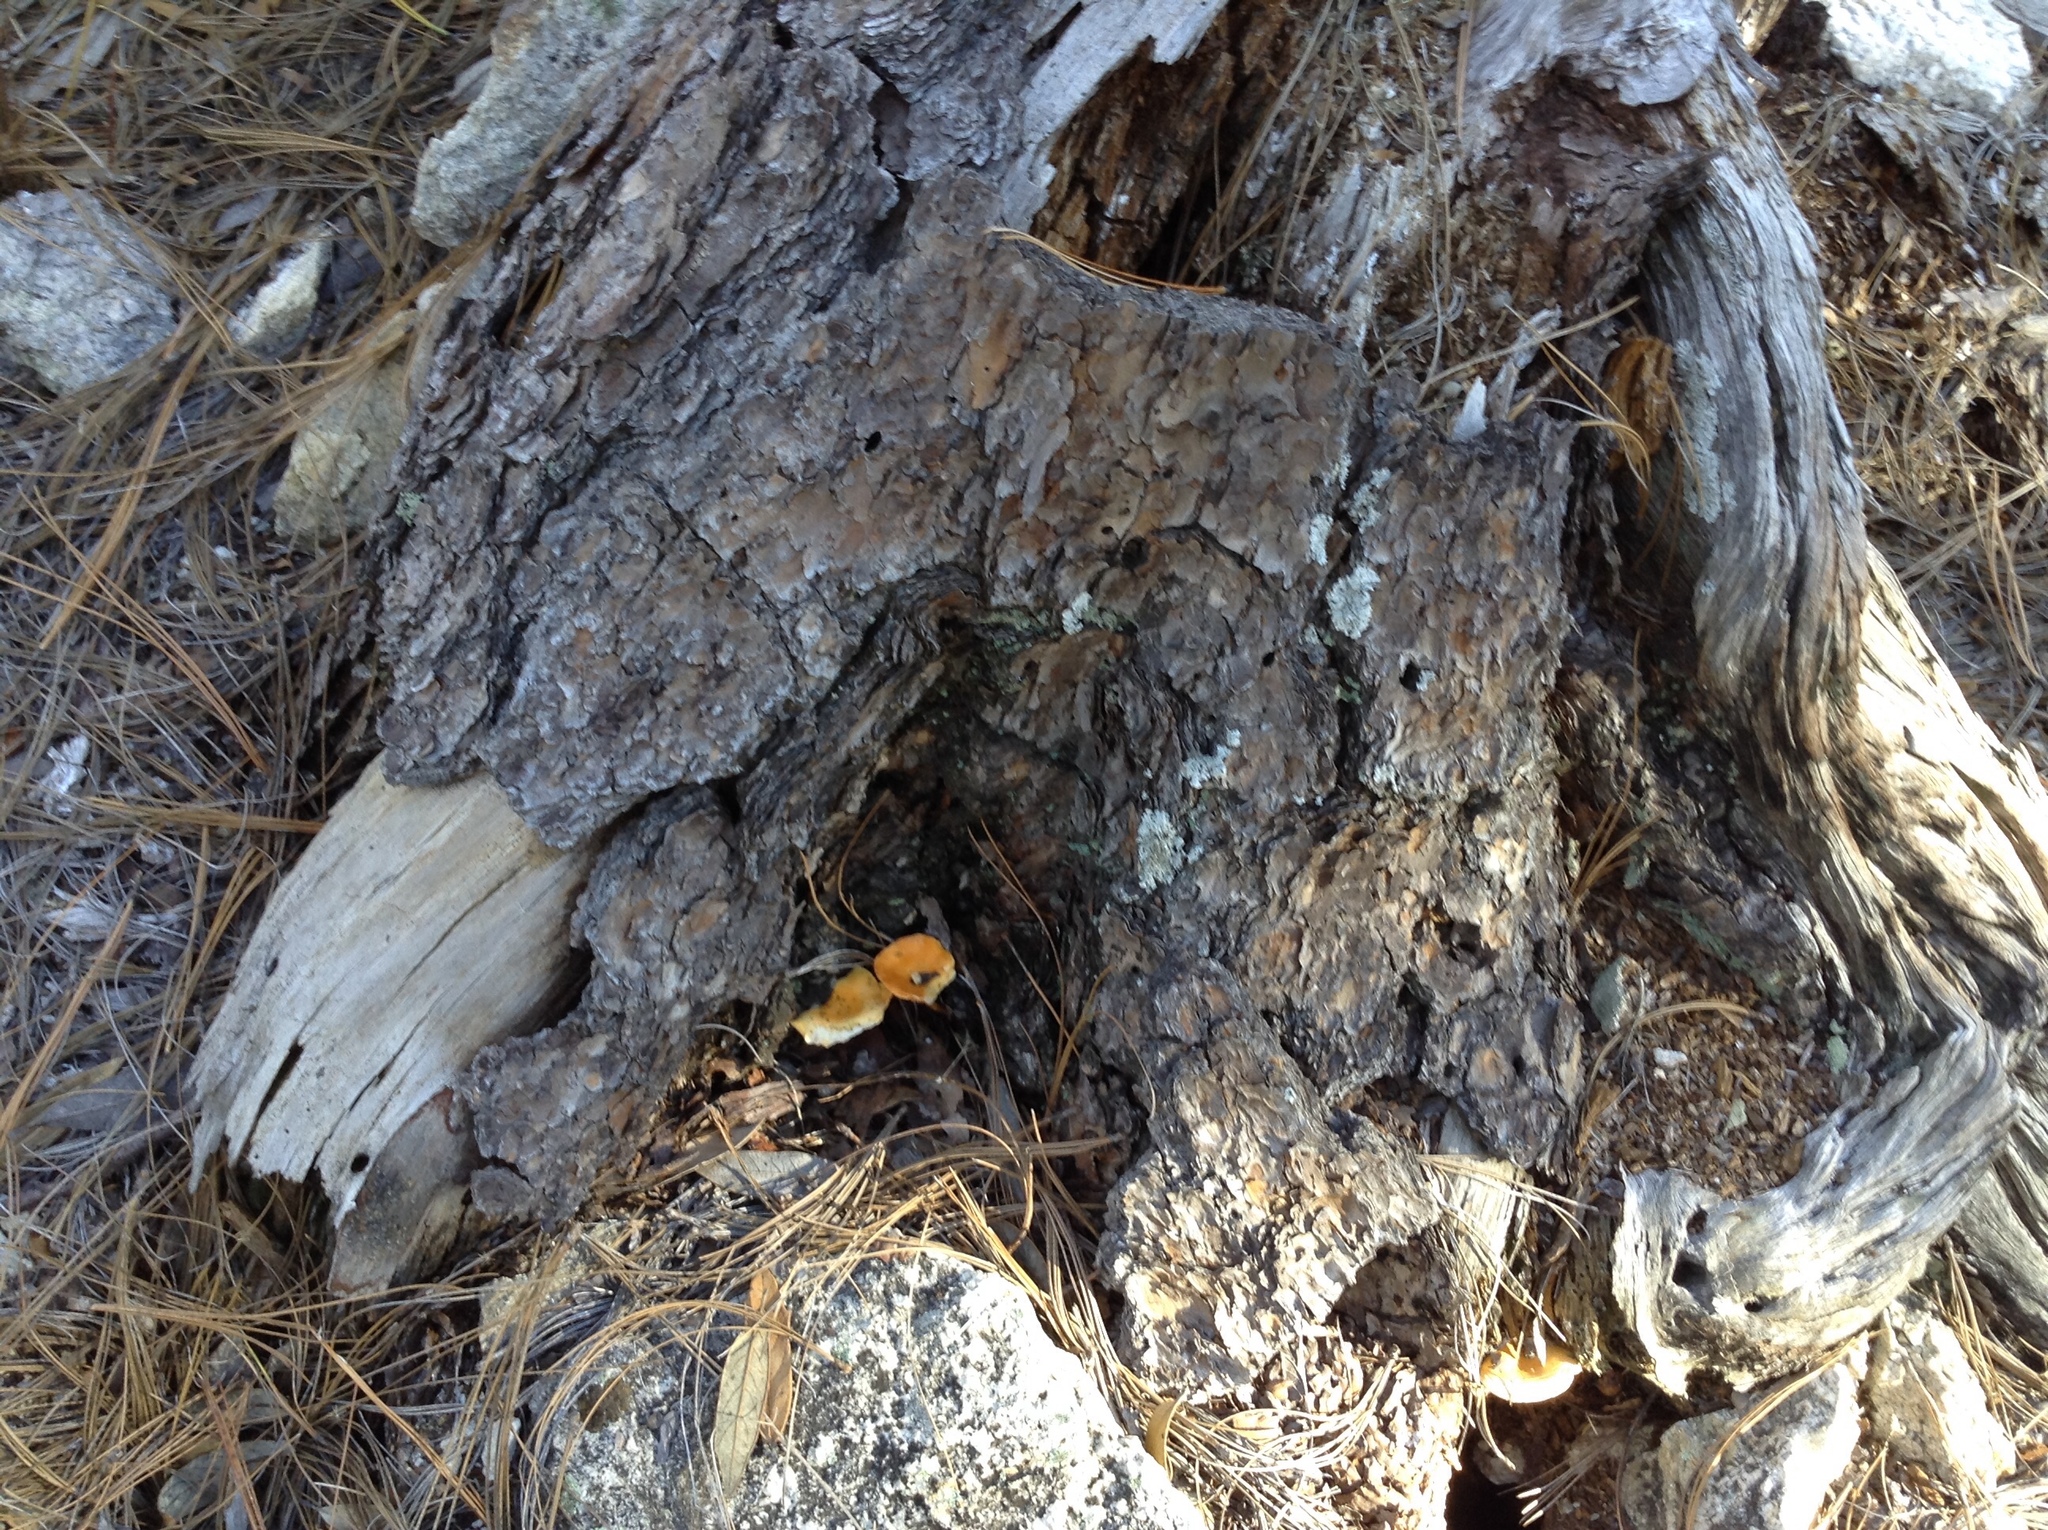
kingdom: Fungi
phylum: Basidiomycota
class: Agaricomycetes
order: Boletales
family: Hygrophoropsidaceae
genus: Hygrophoropsis
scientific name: Hygrophoropsis aurantiaca
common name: False chanterelle
